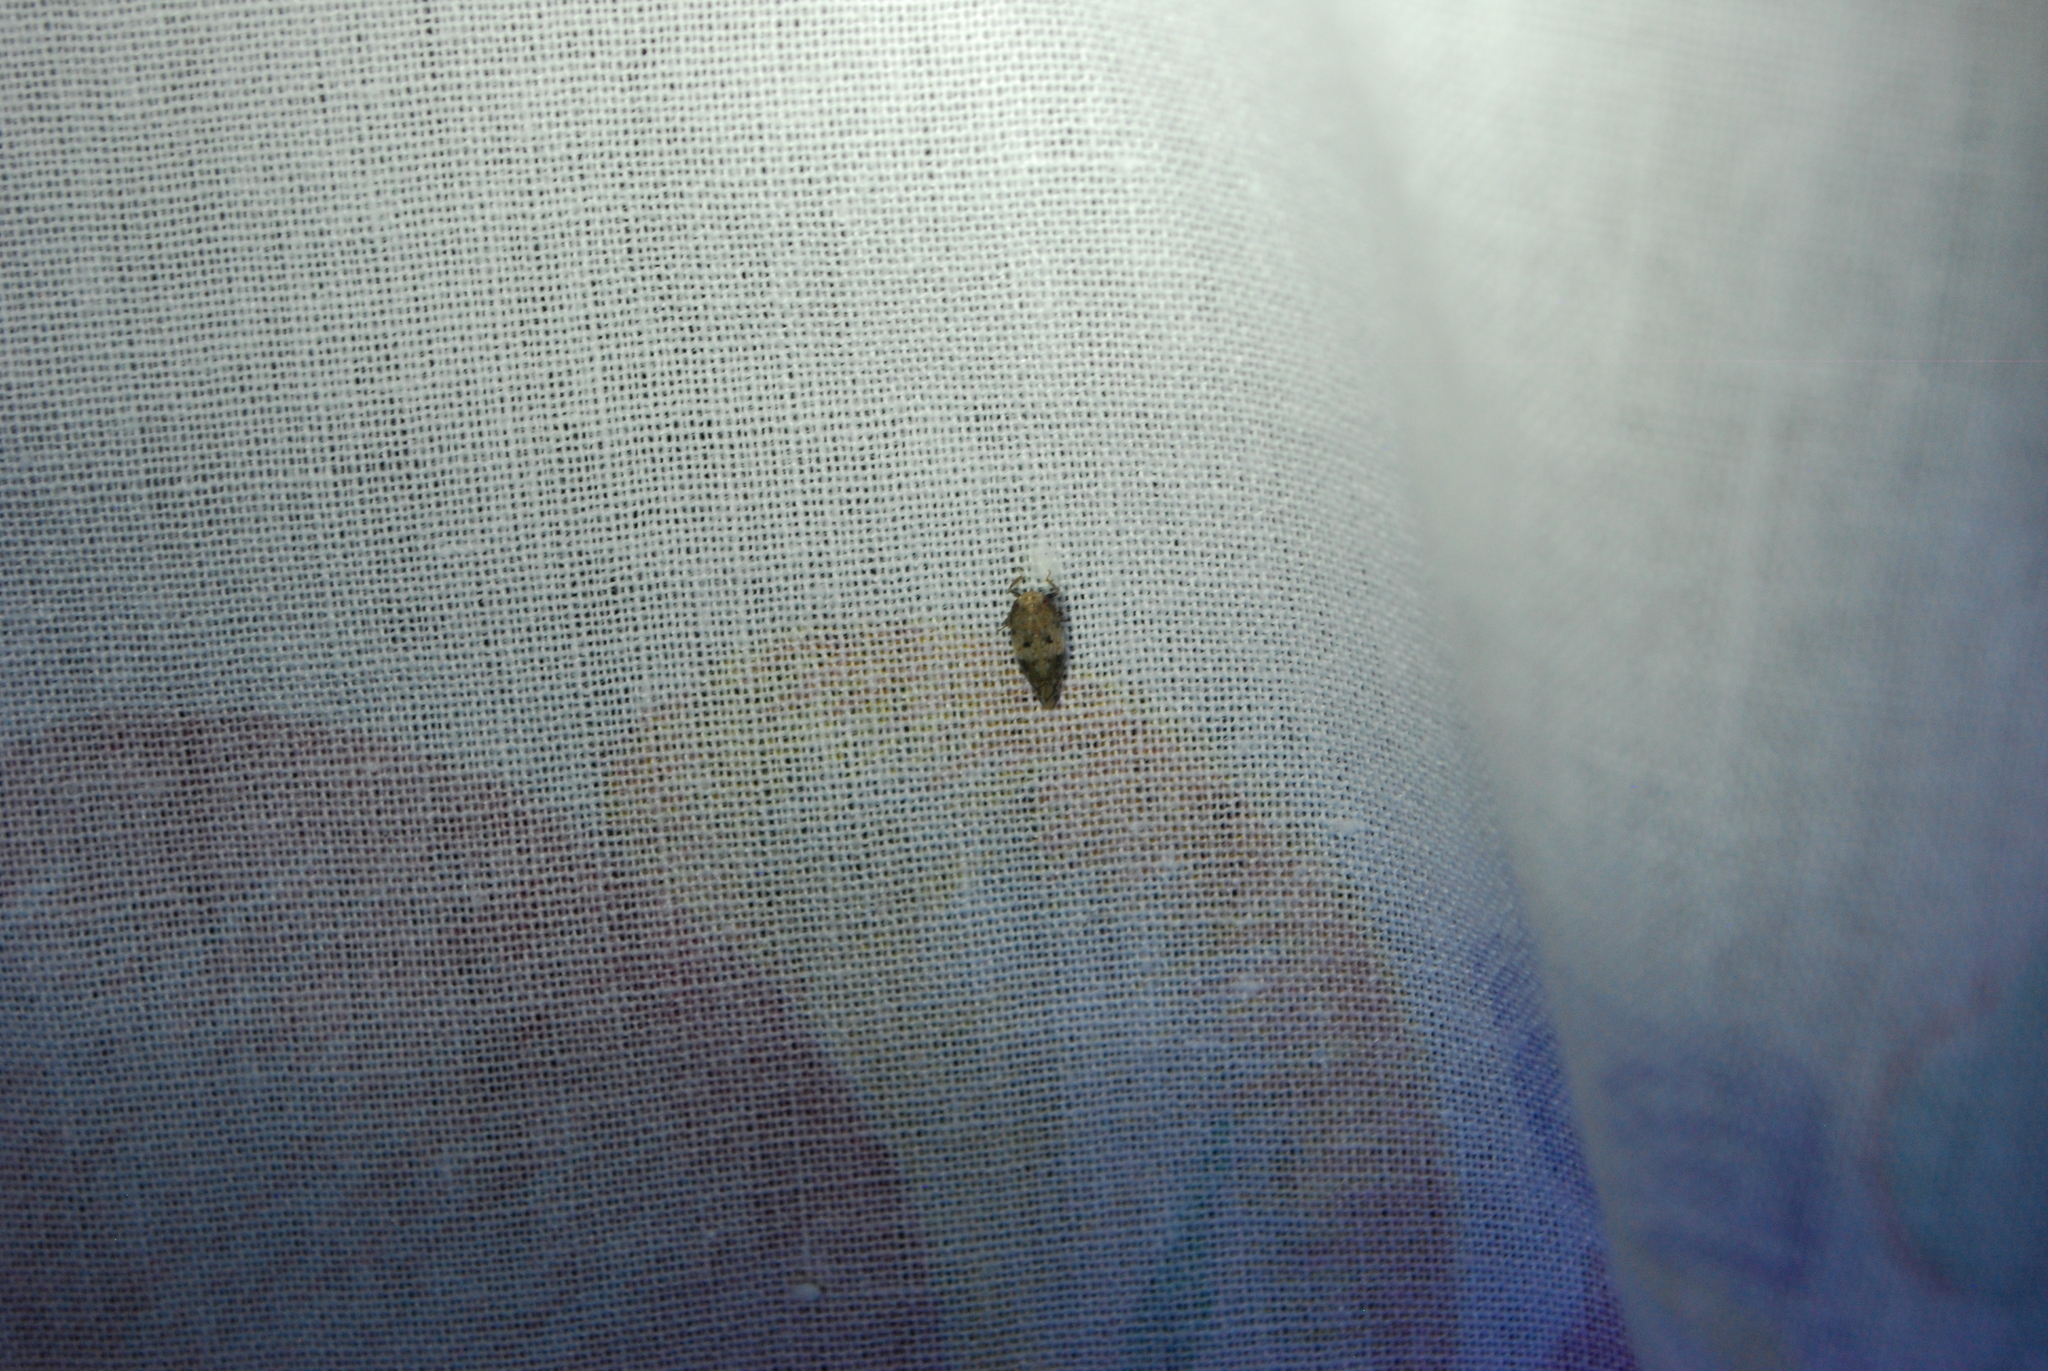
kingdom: Animalia
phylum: Arthropoda
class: Insecta
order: Hemiptera
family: Cicadellidae
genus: Menosoma
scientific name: Menosoma cinctum
